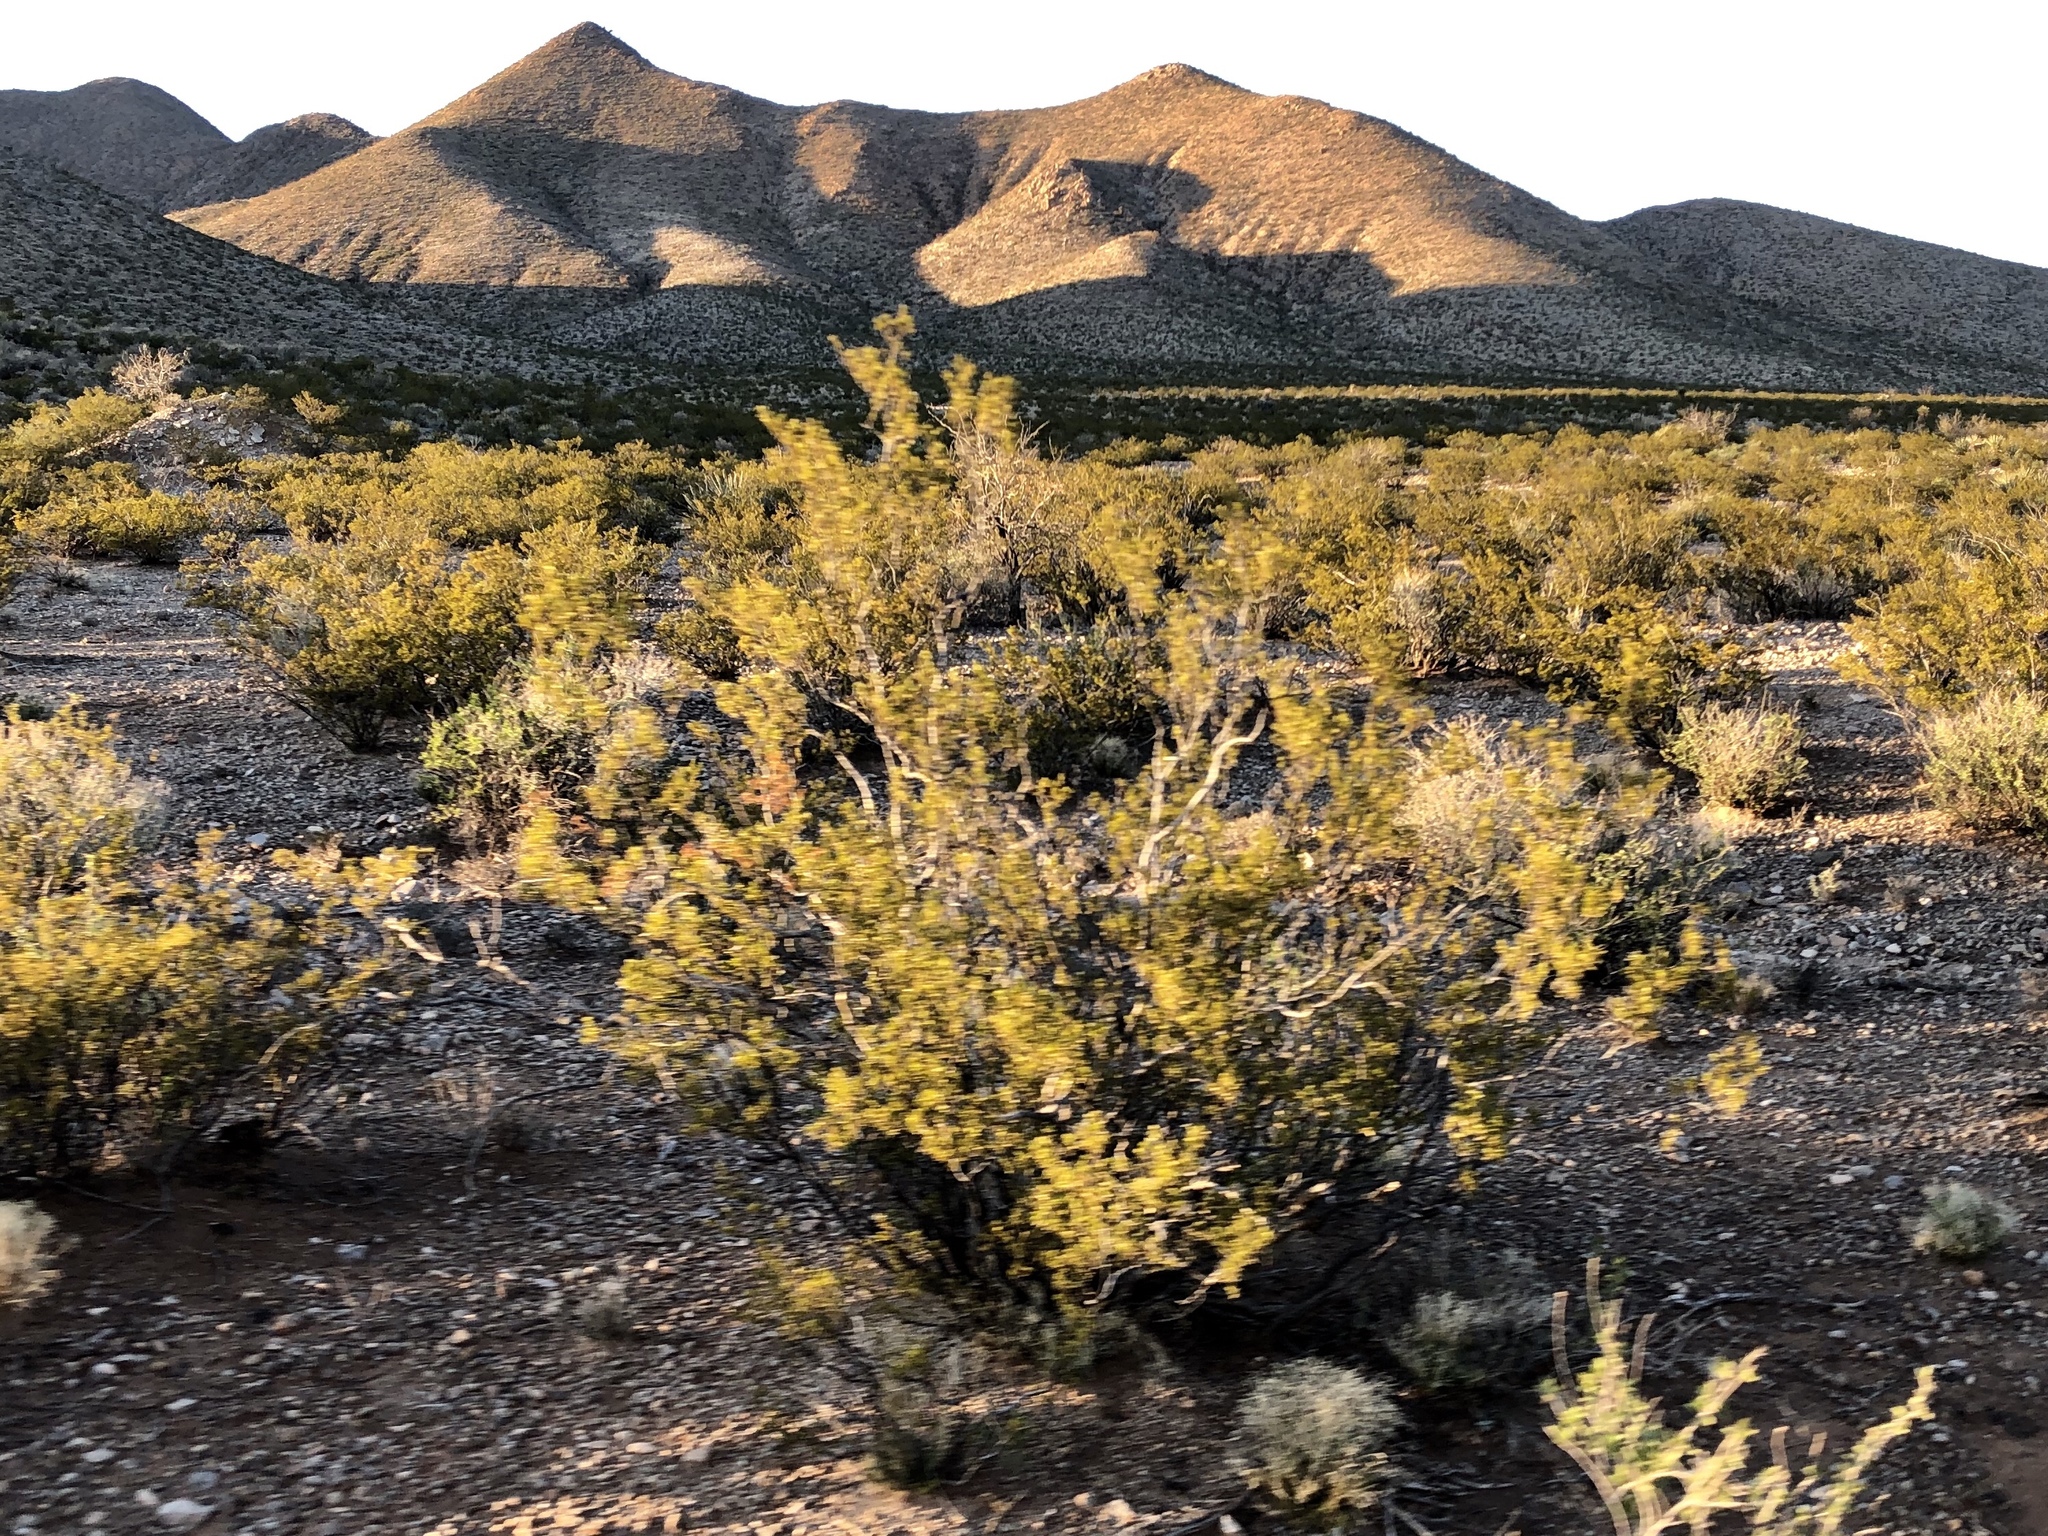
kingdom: Plantae
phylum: Tracheophyta
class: Magnoliopsida
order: Zygophyllales
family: Zygophyllaceae
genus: Larrea
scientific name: Larrea tridentata
